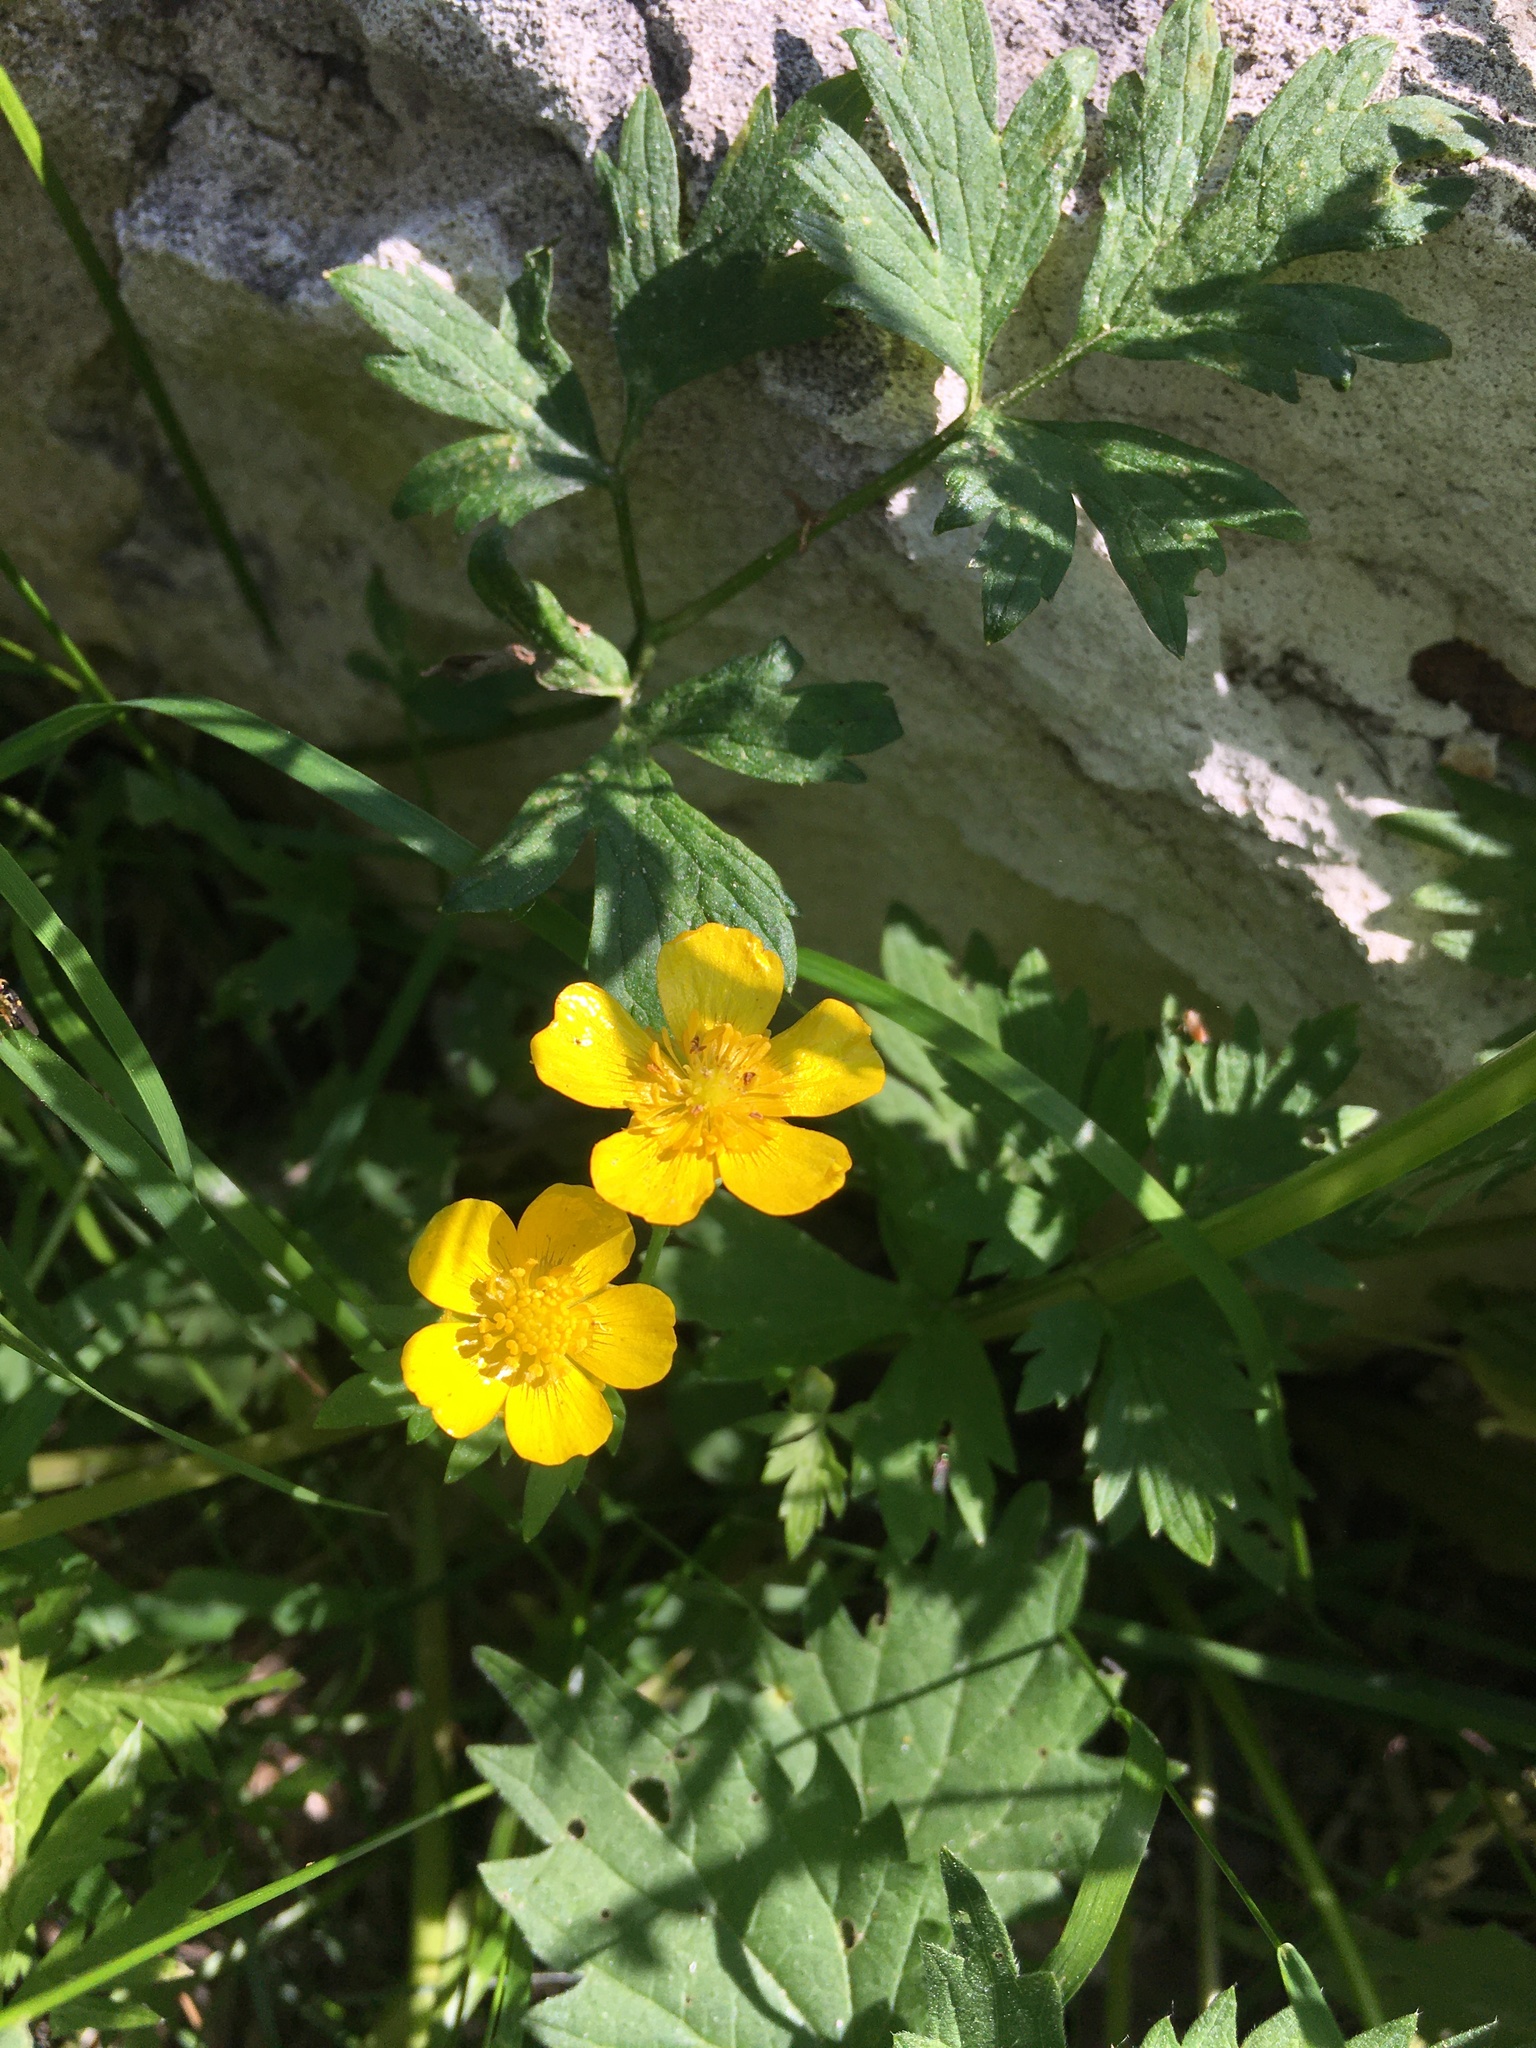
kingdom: Plantae
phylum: Tracheophyta
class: Magnoliopsida
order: Ranunculales
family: Ranunculaceae
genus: Ranunculus
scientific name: Ranunculus repens
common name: Creeping buttercup
